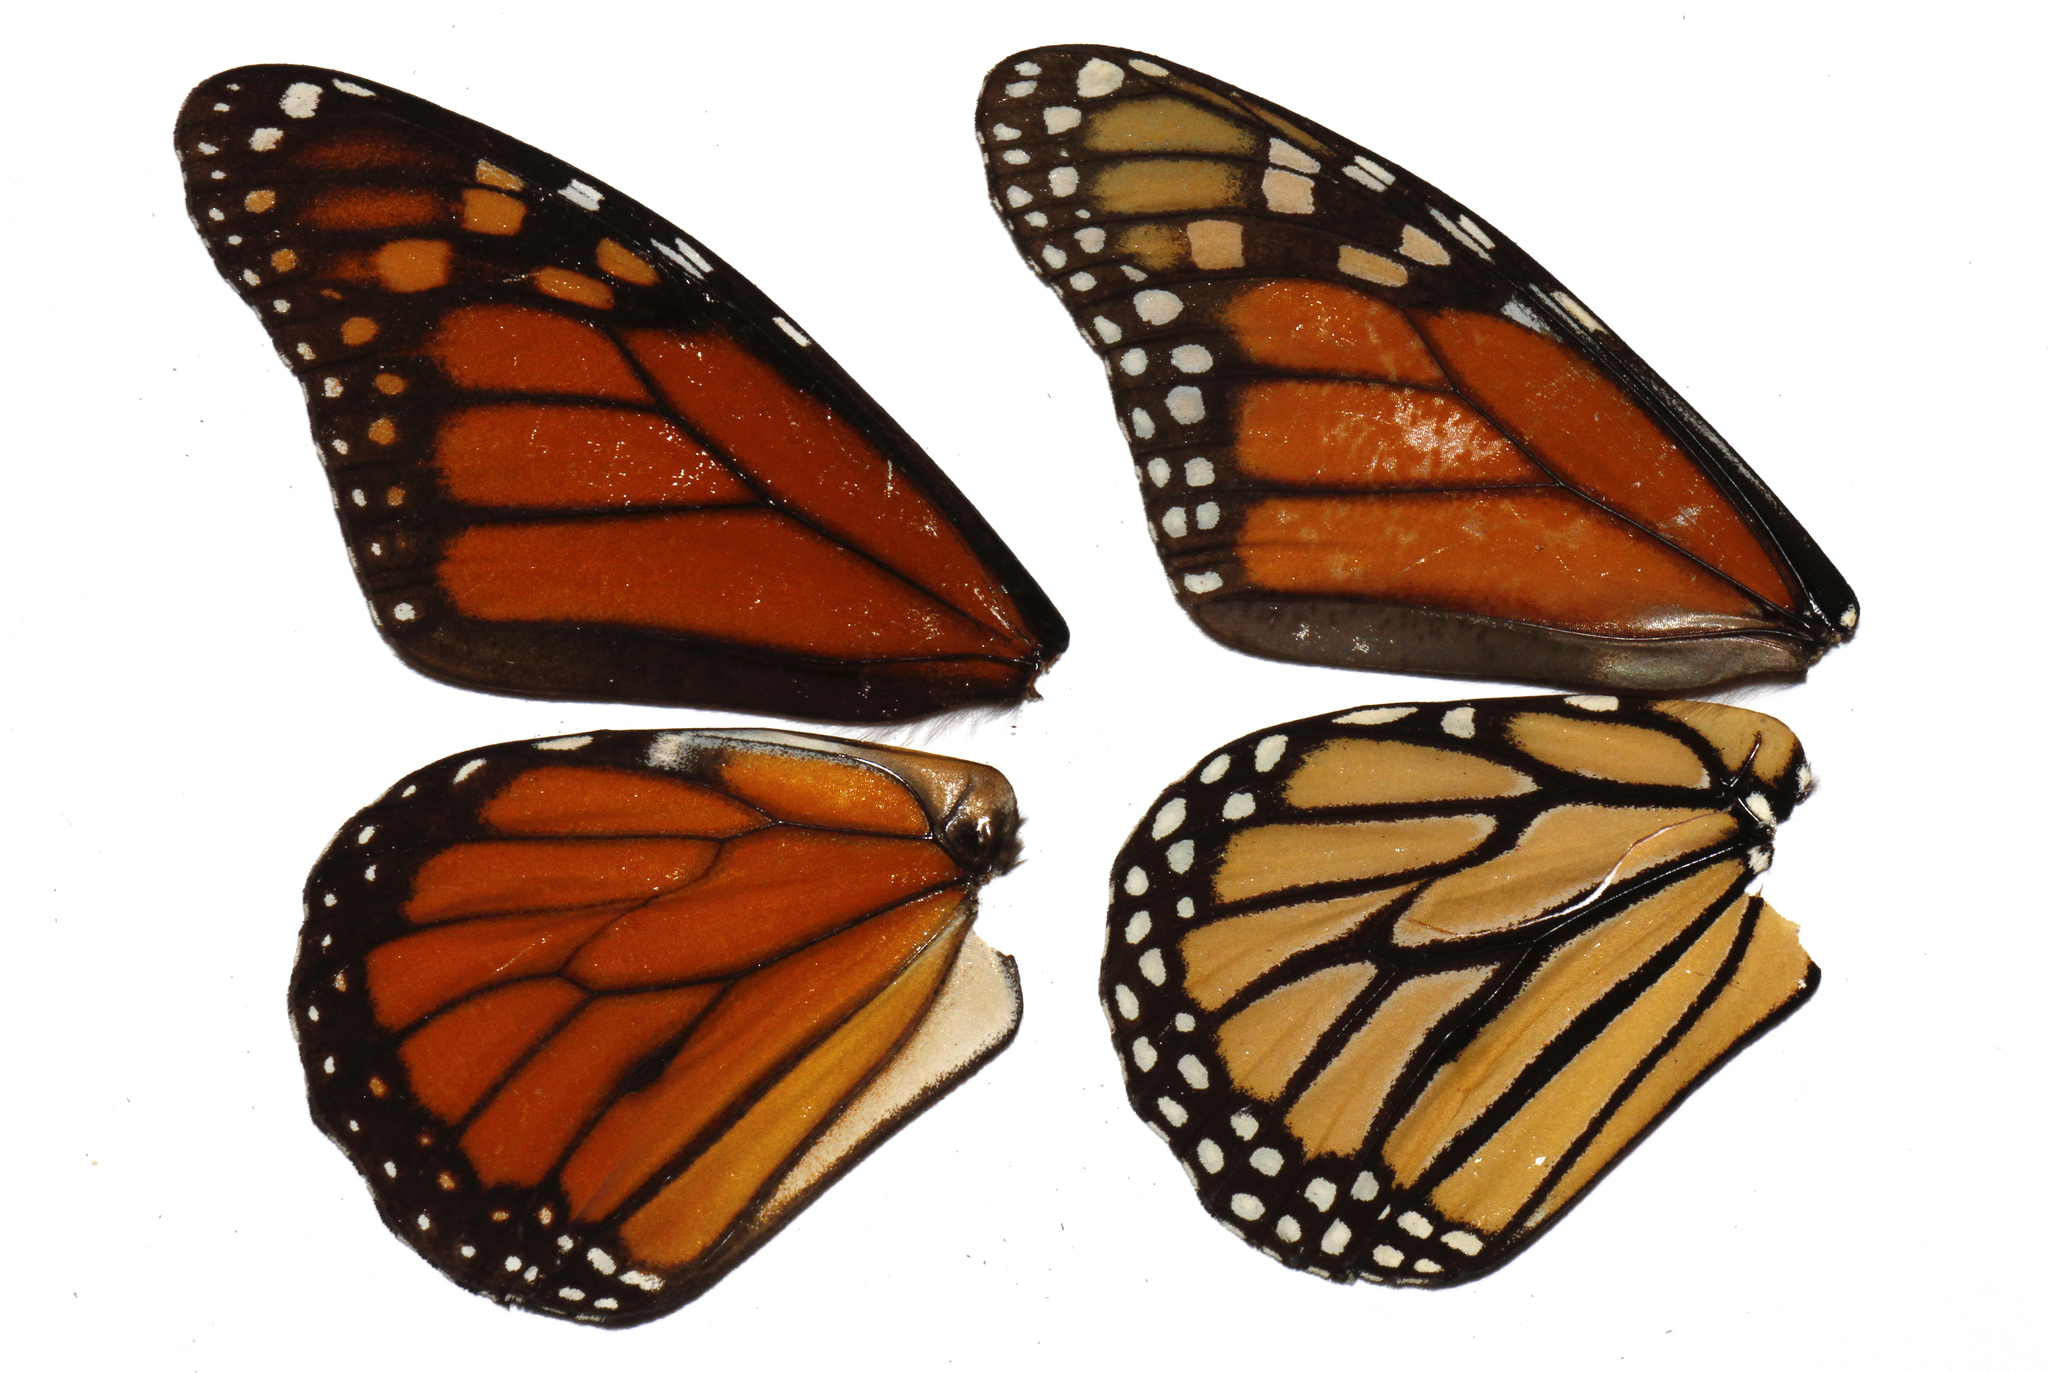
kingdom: Animalia
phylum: Arthropoda
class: Insecta
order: Lepidoptera
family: Nymphalidae
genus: Danaus
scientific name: Danaus plexippus
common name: Monarch
